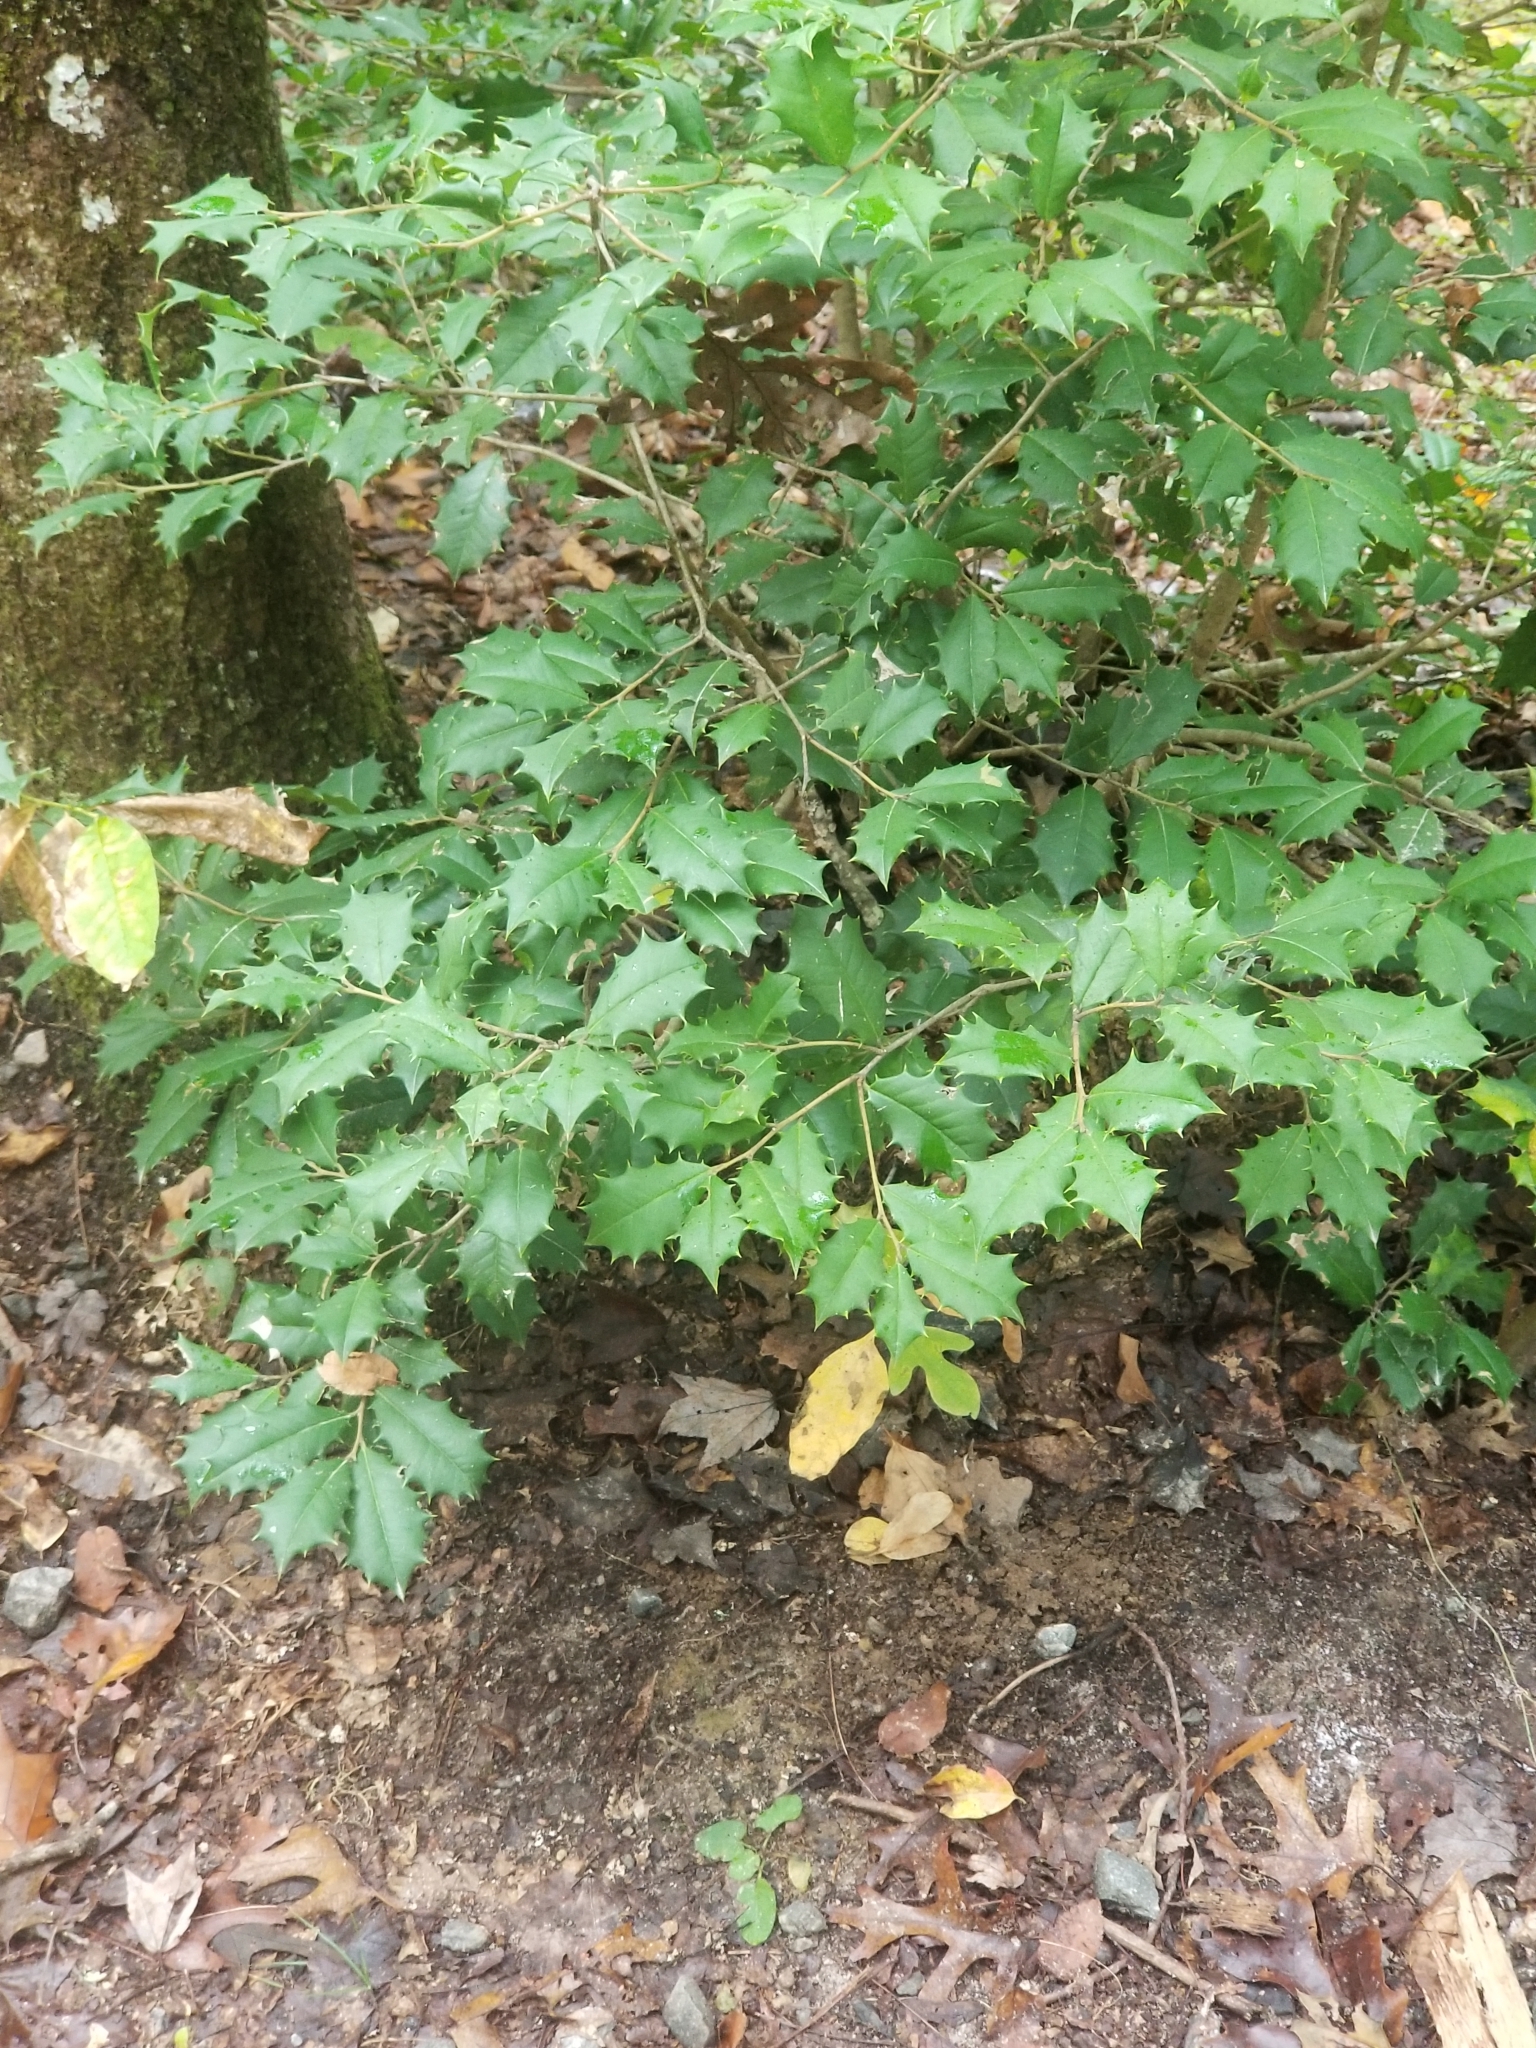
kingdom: Plantae
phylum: Tracheophyta
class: Magnoliopsida
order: Aquifoliales
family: Aquifoliaceae
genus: Ilex
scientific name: Ilex opaca
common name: American holly
